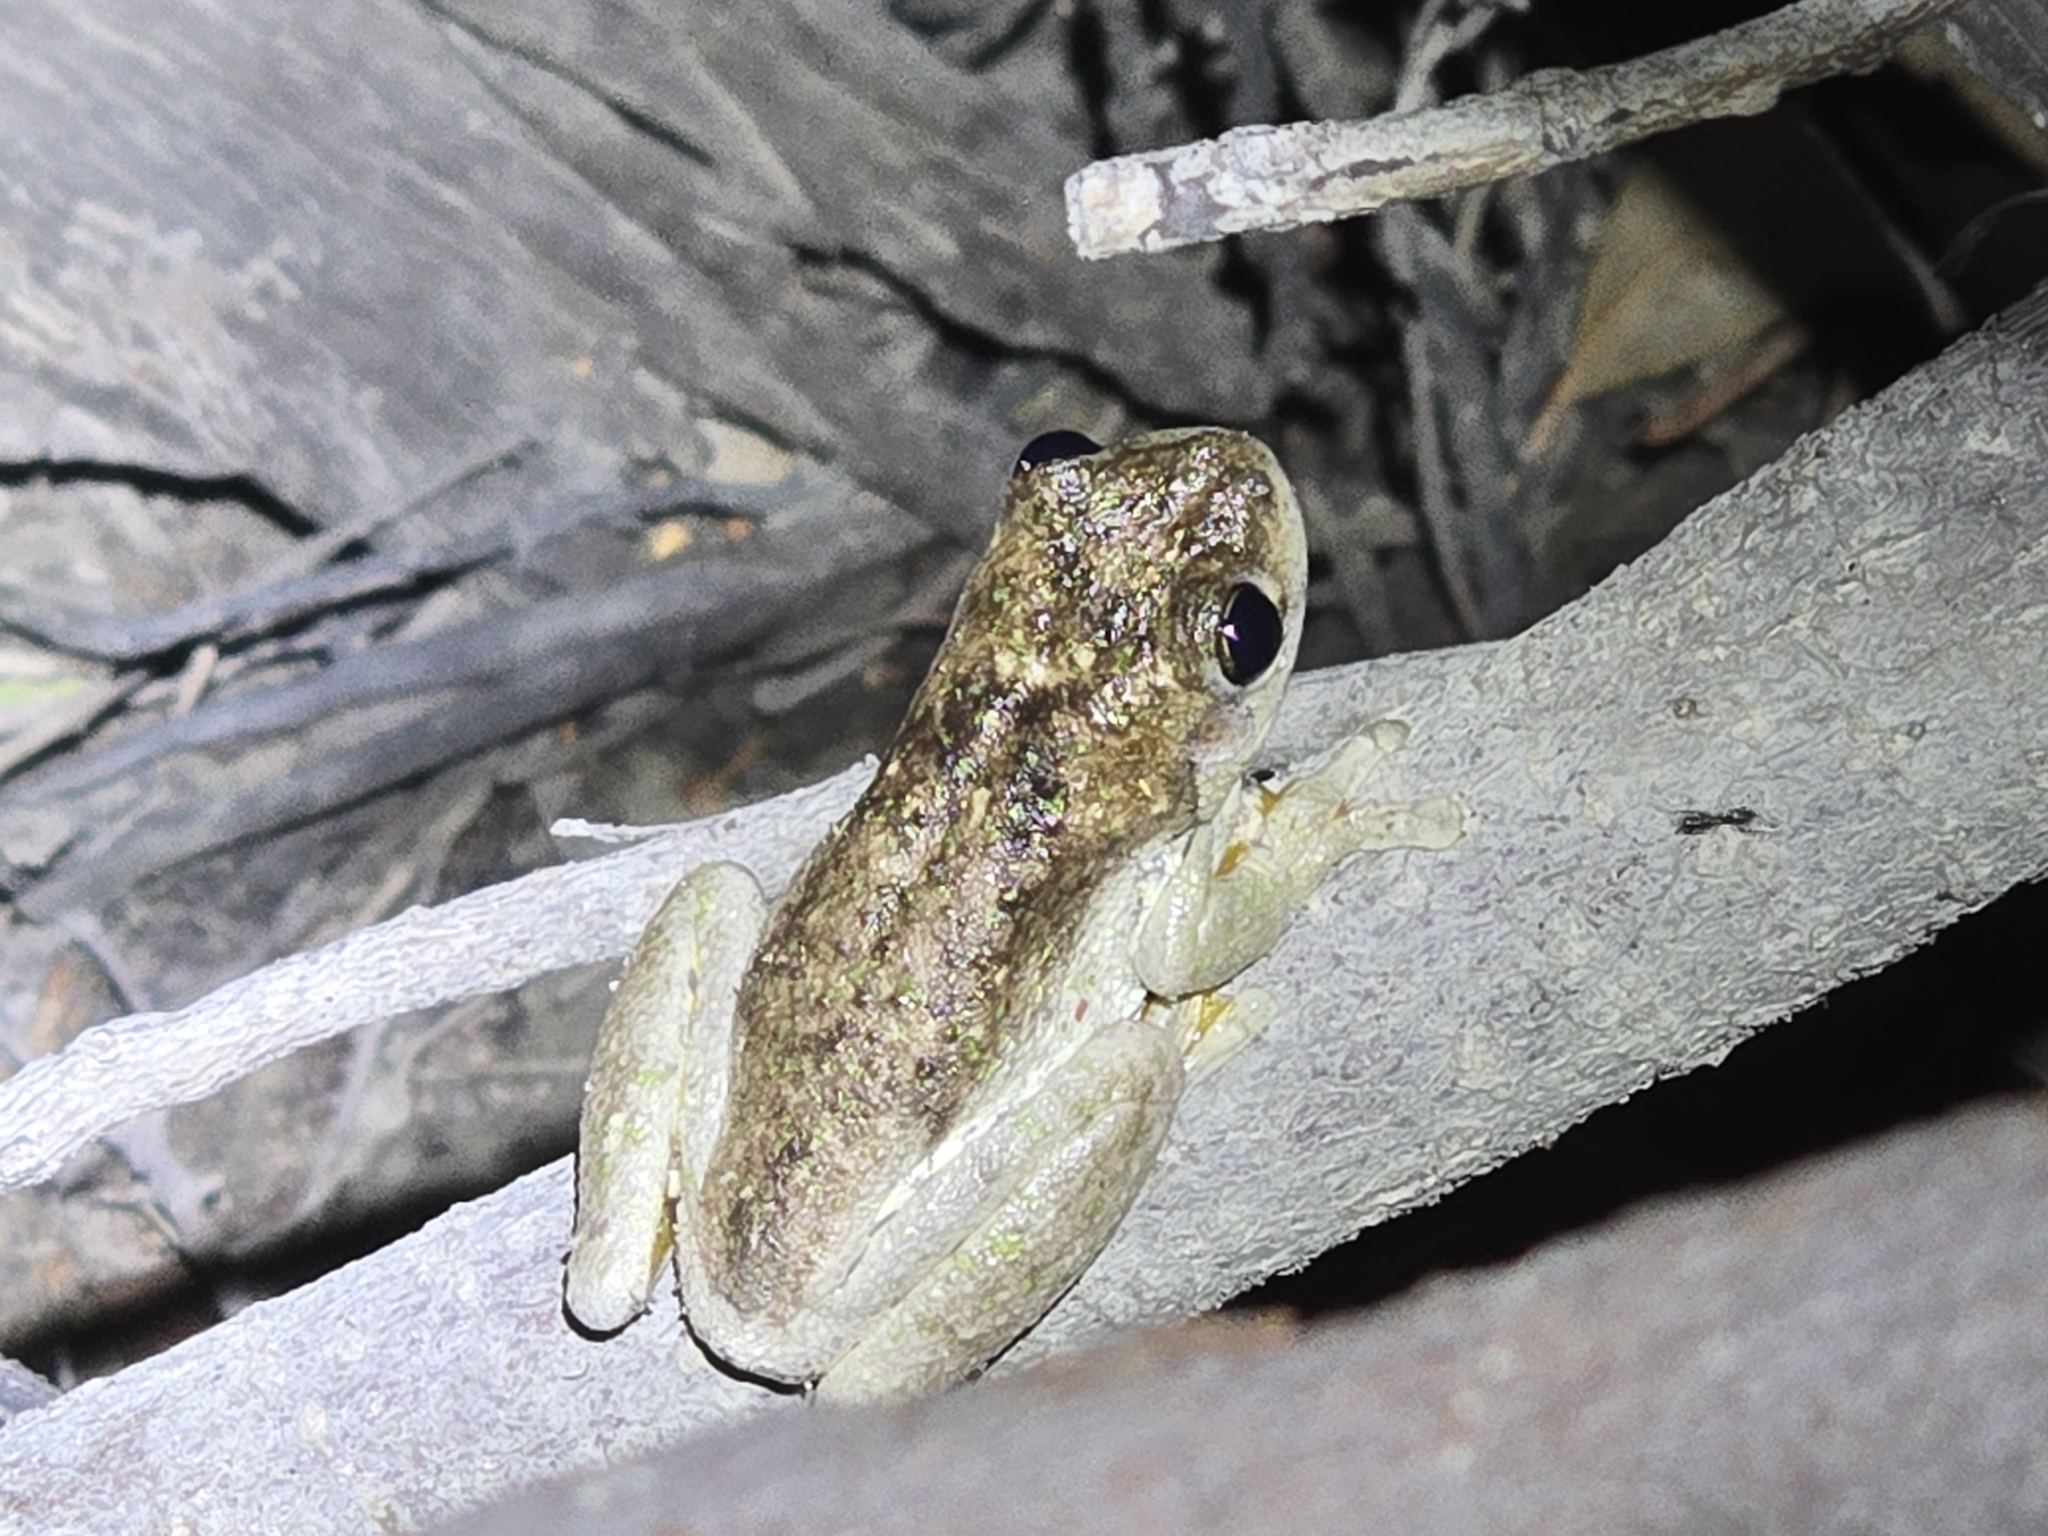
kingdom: Animalia
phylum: Chordata
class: Amphibia
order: Anura
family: Pelodryadidae
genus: Litoria
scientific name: Litoria peronii
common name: Emerald spotted treefrog
